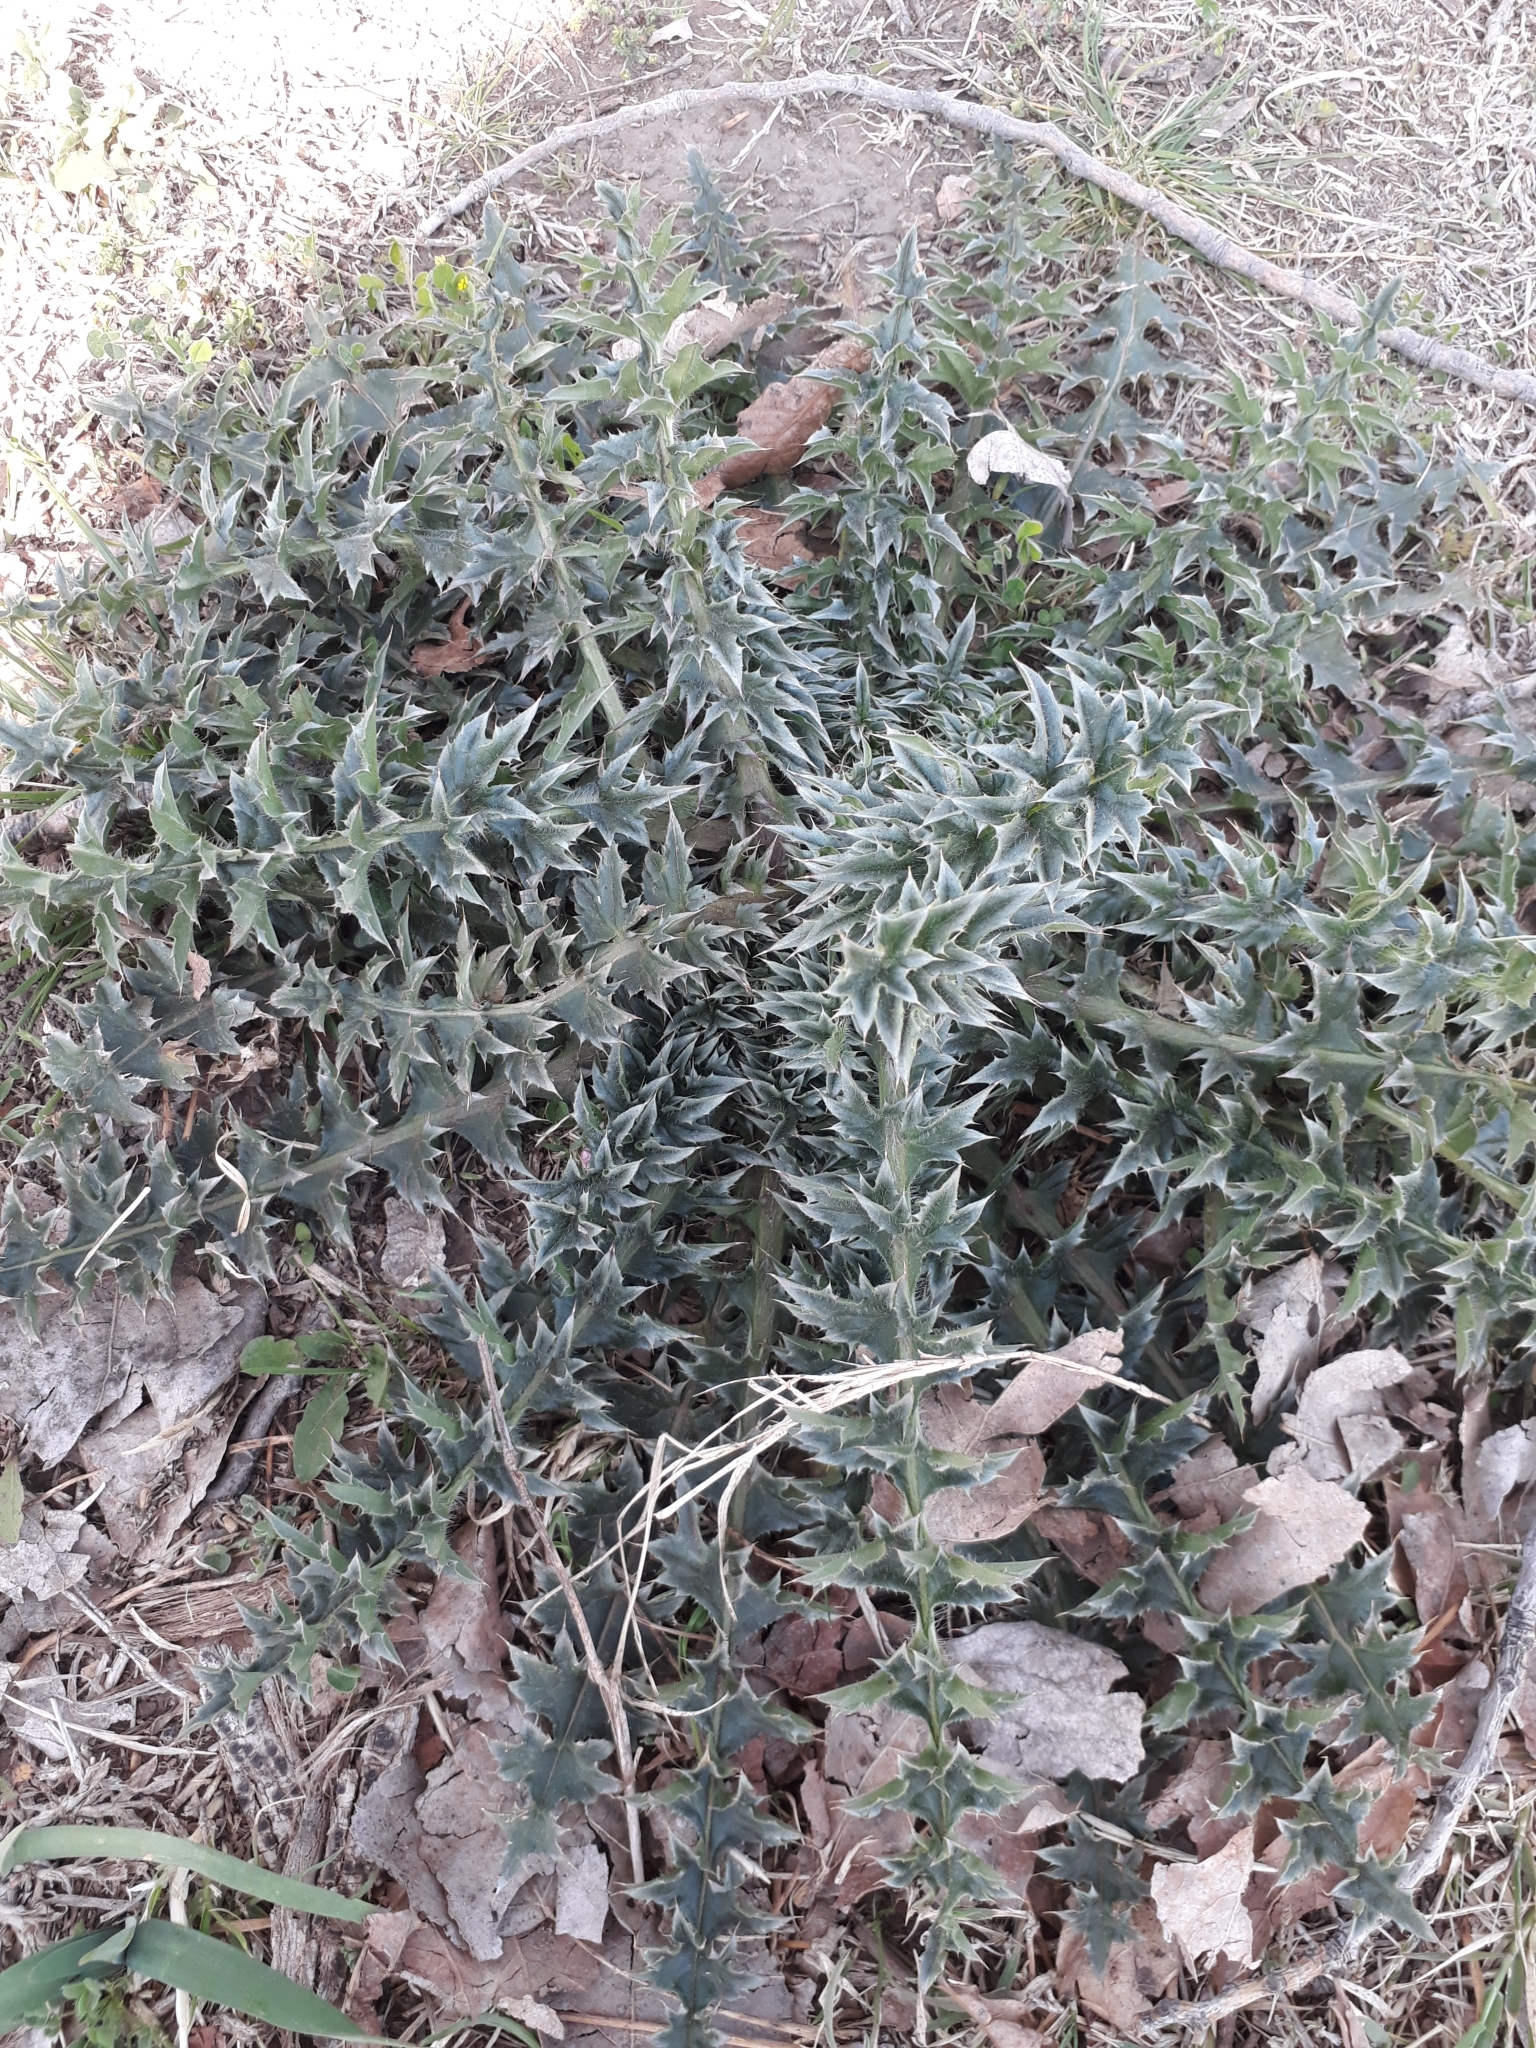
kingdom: Plantae
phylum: Tracheophyta
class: Magnoliopsida
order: Asterales
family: Asteraceae
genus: Carduus
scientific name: Carduus acanthoides
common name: Plumeless thistle
